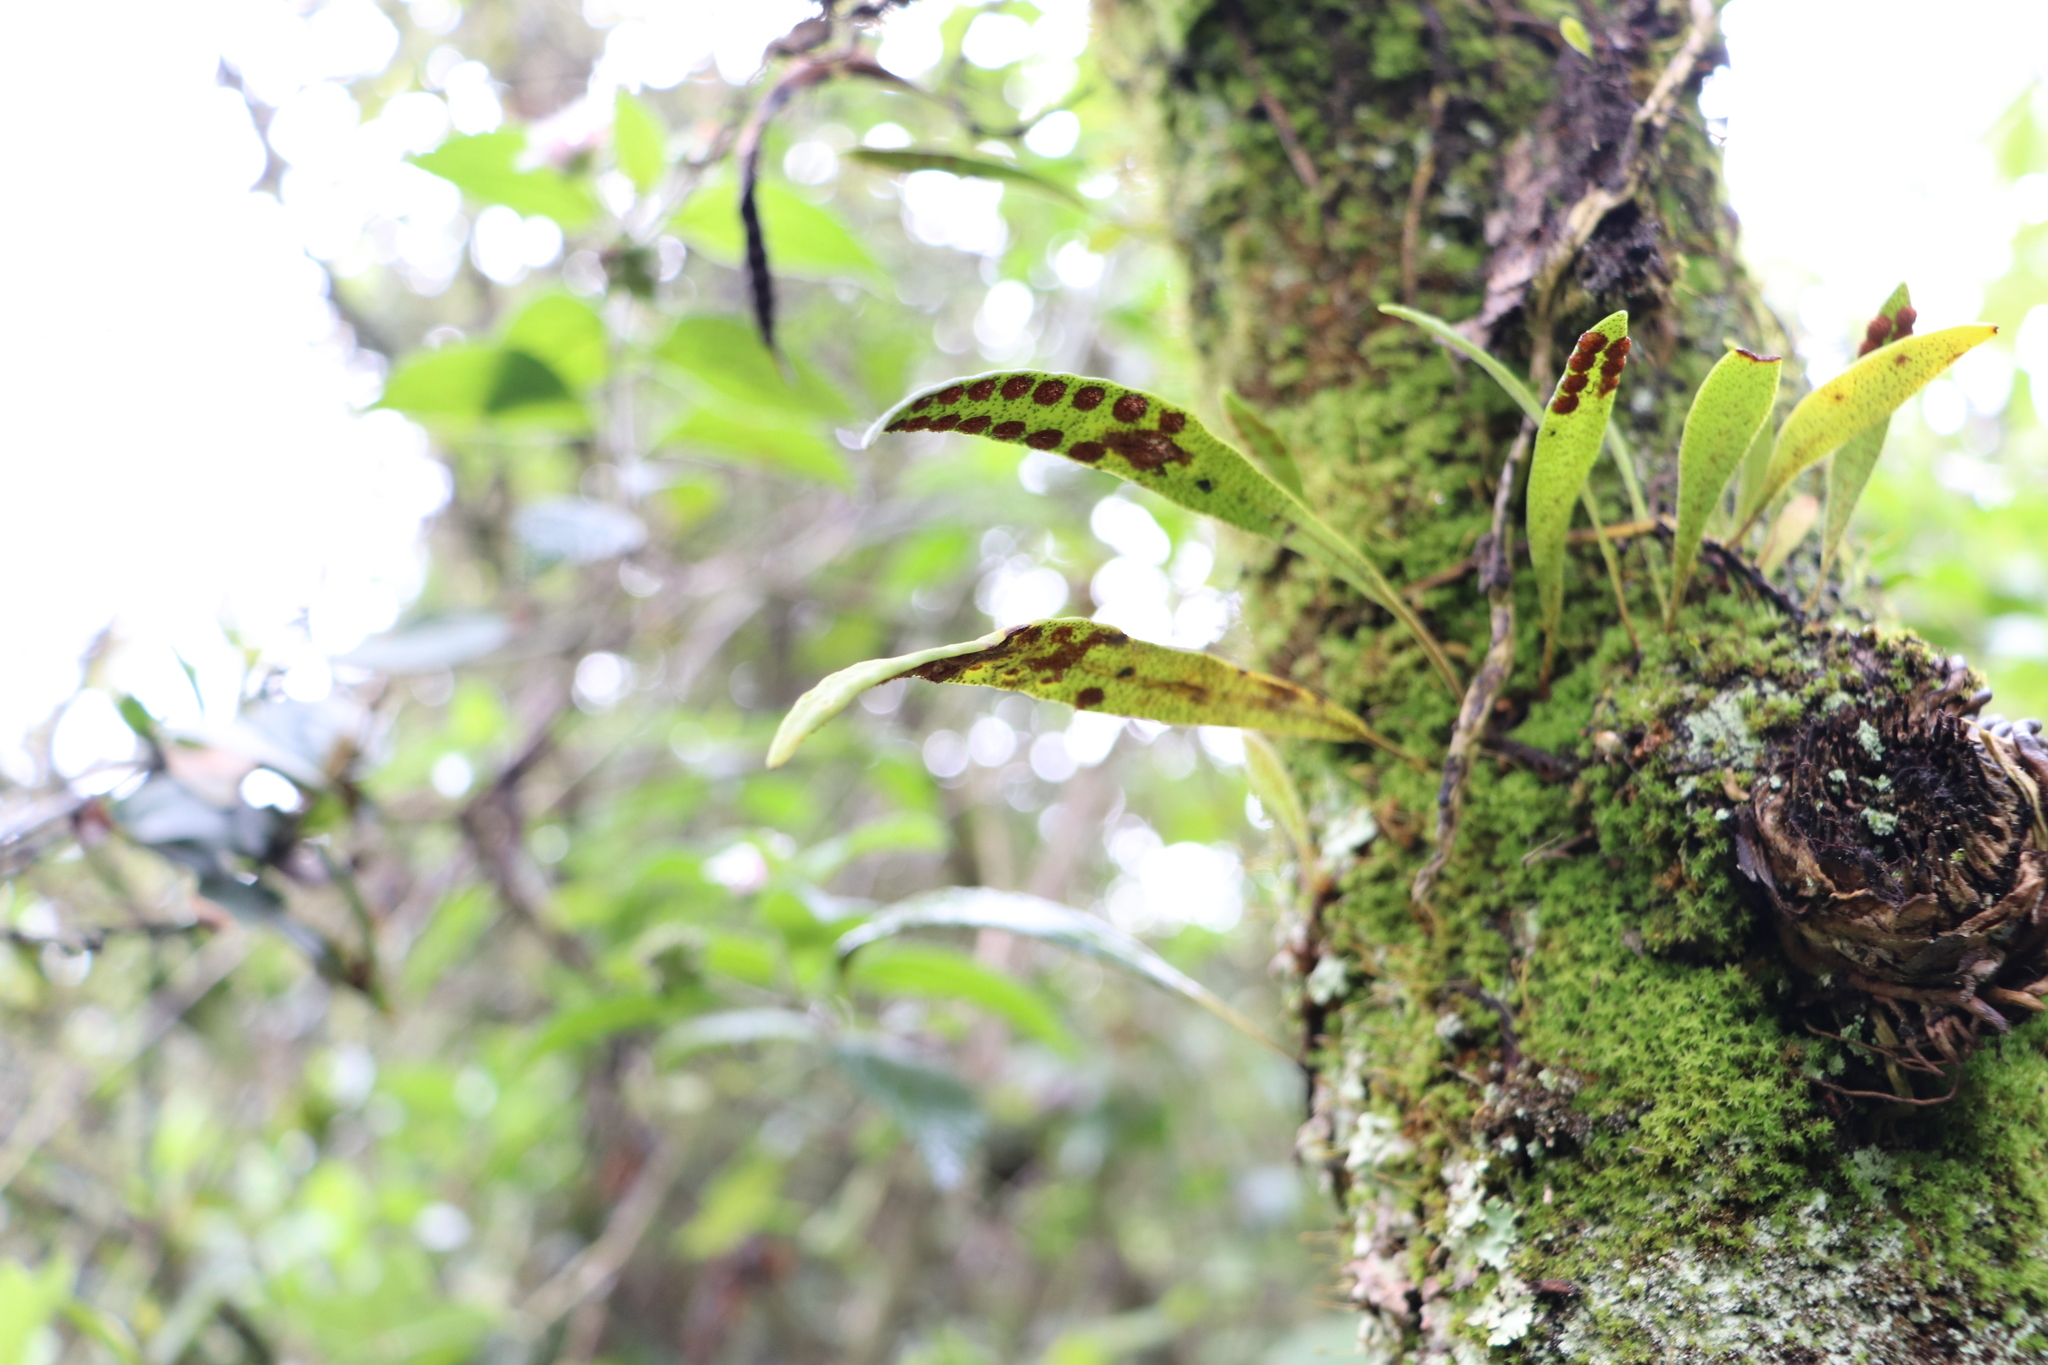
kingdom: Plantae
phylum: Tracheophyta
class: Polypodiopsida
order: Polypodiales
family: Polypodiaceae
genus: Pleopeltis
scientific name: Pleopeltis macrocarpa
